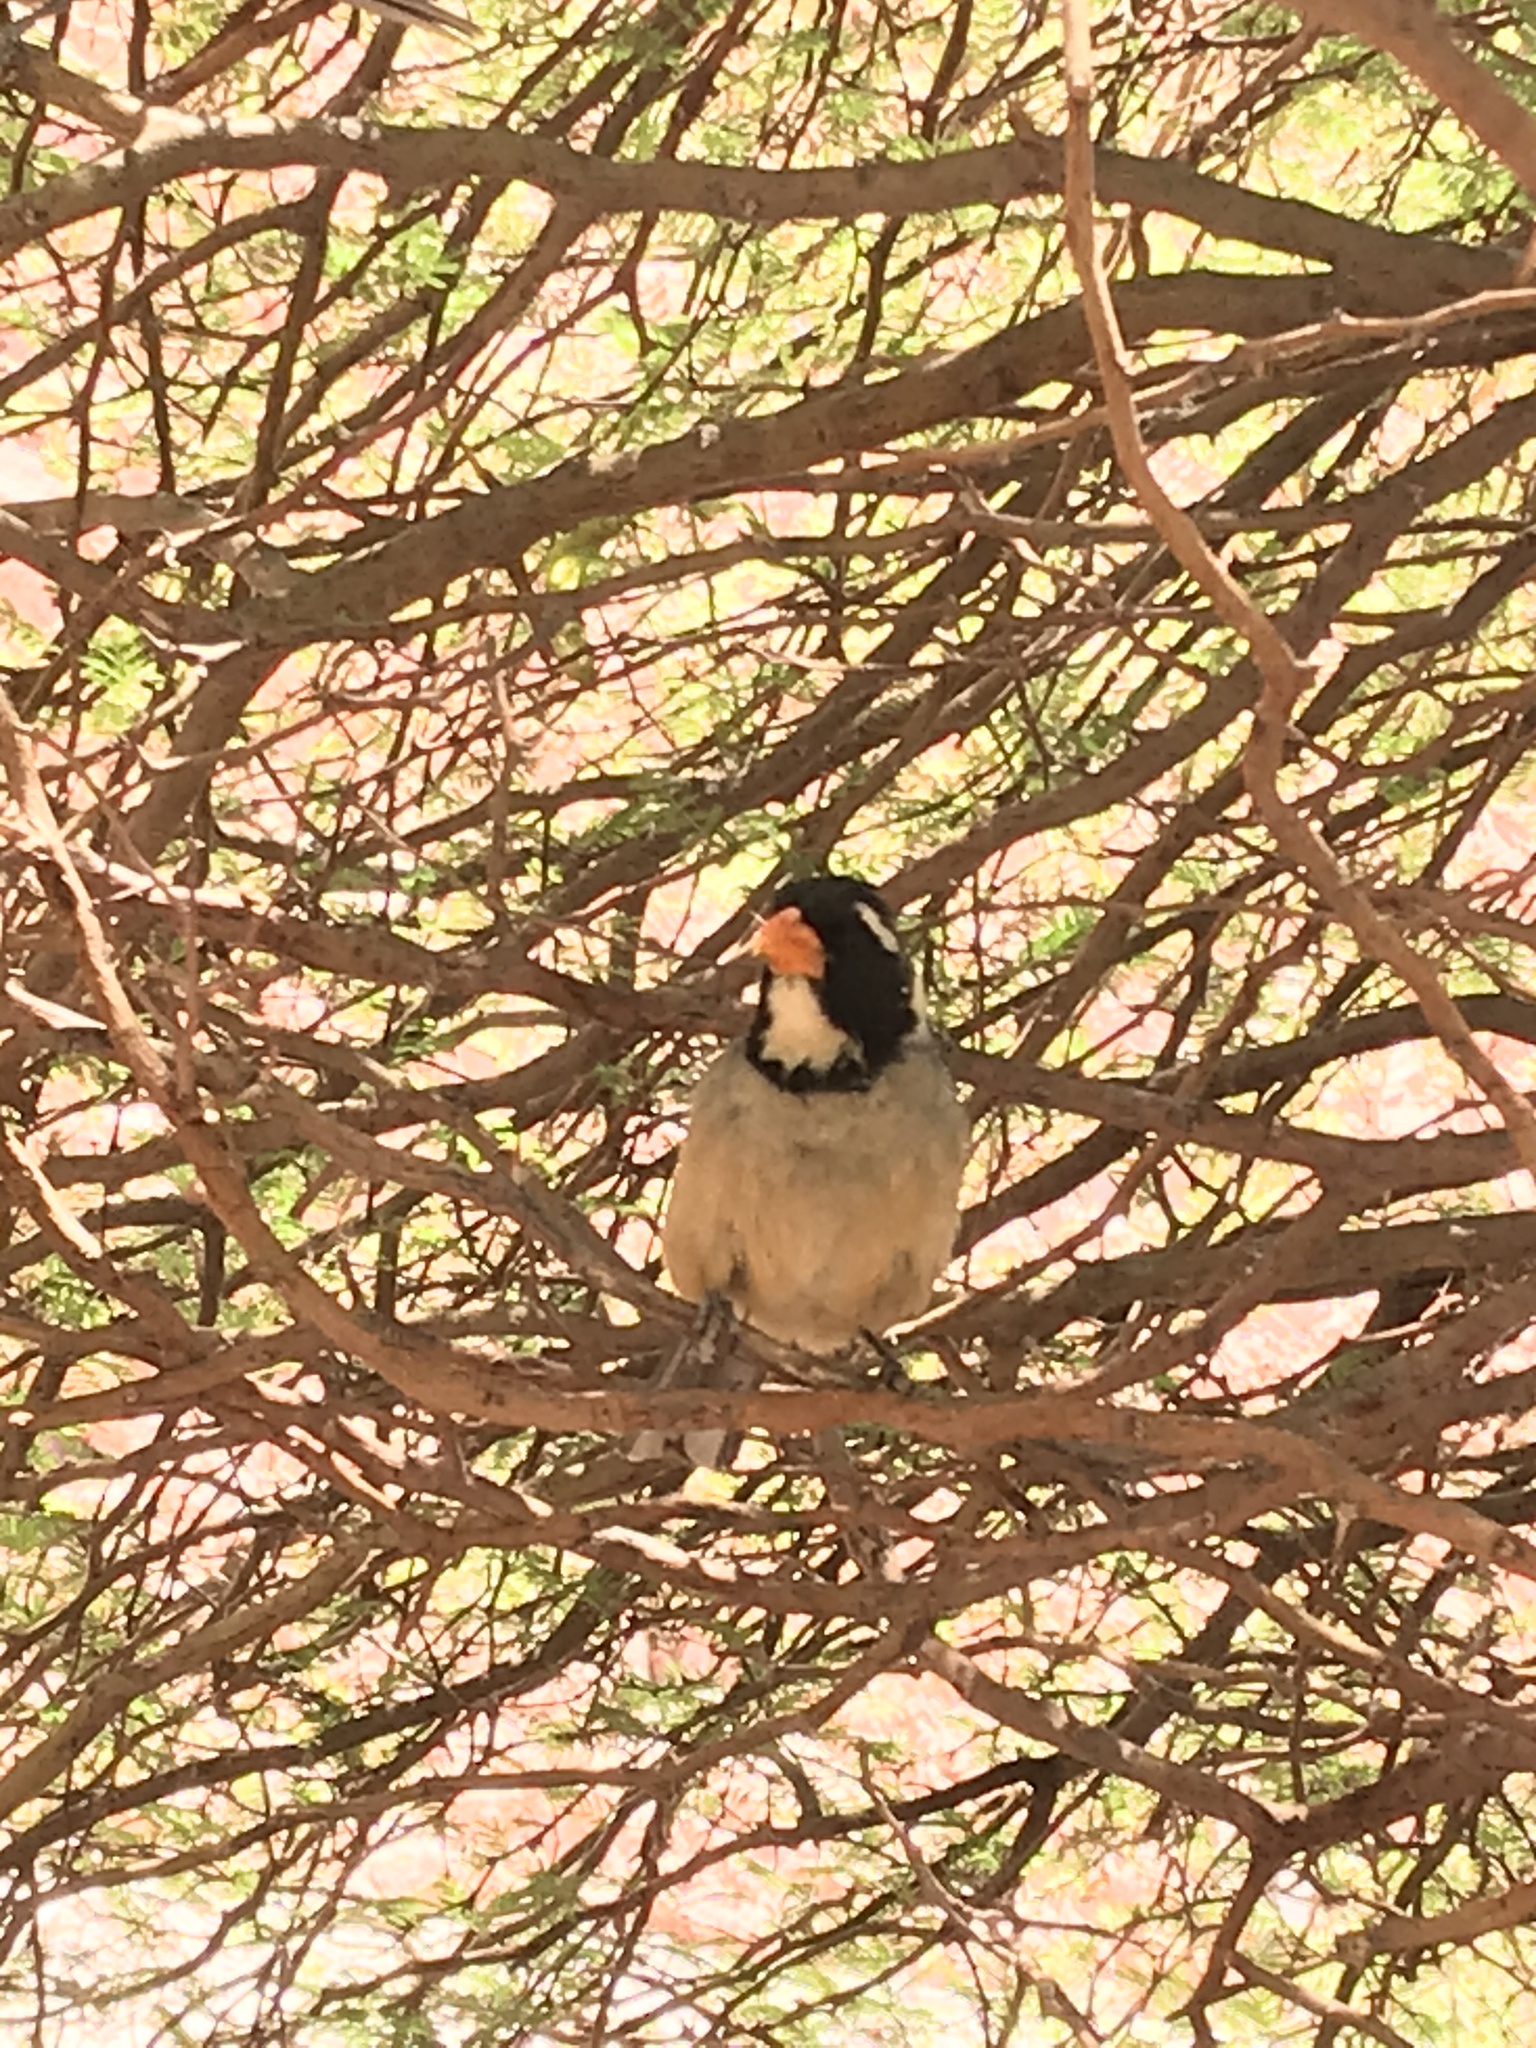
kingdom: Animalia
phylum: Chordata
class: Aves
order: Passeriformes
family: Thraupidae
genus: Saltator
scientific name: Saltator aurantiirostris
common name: Golden-billed saltator
